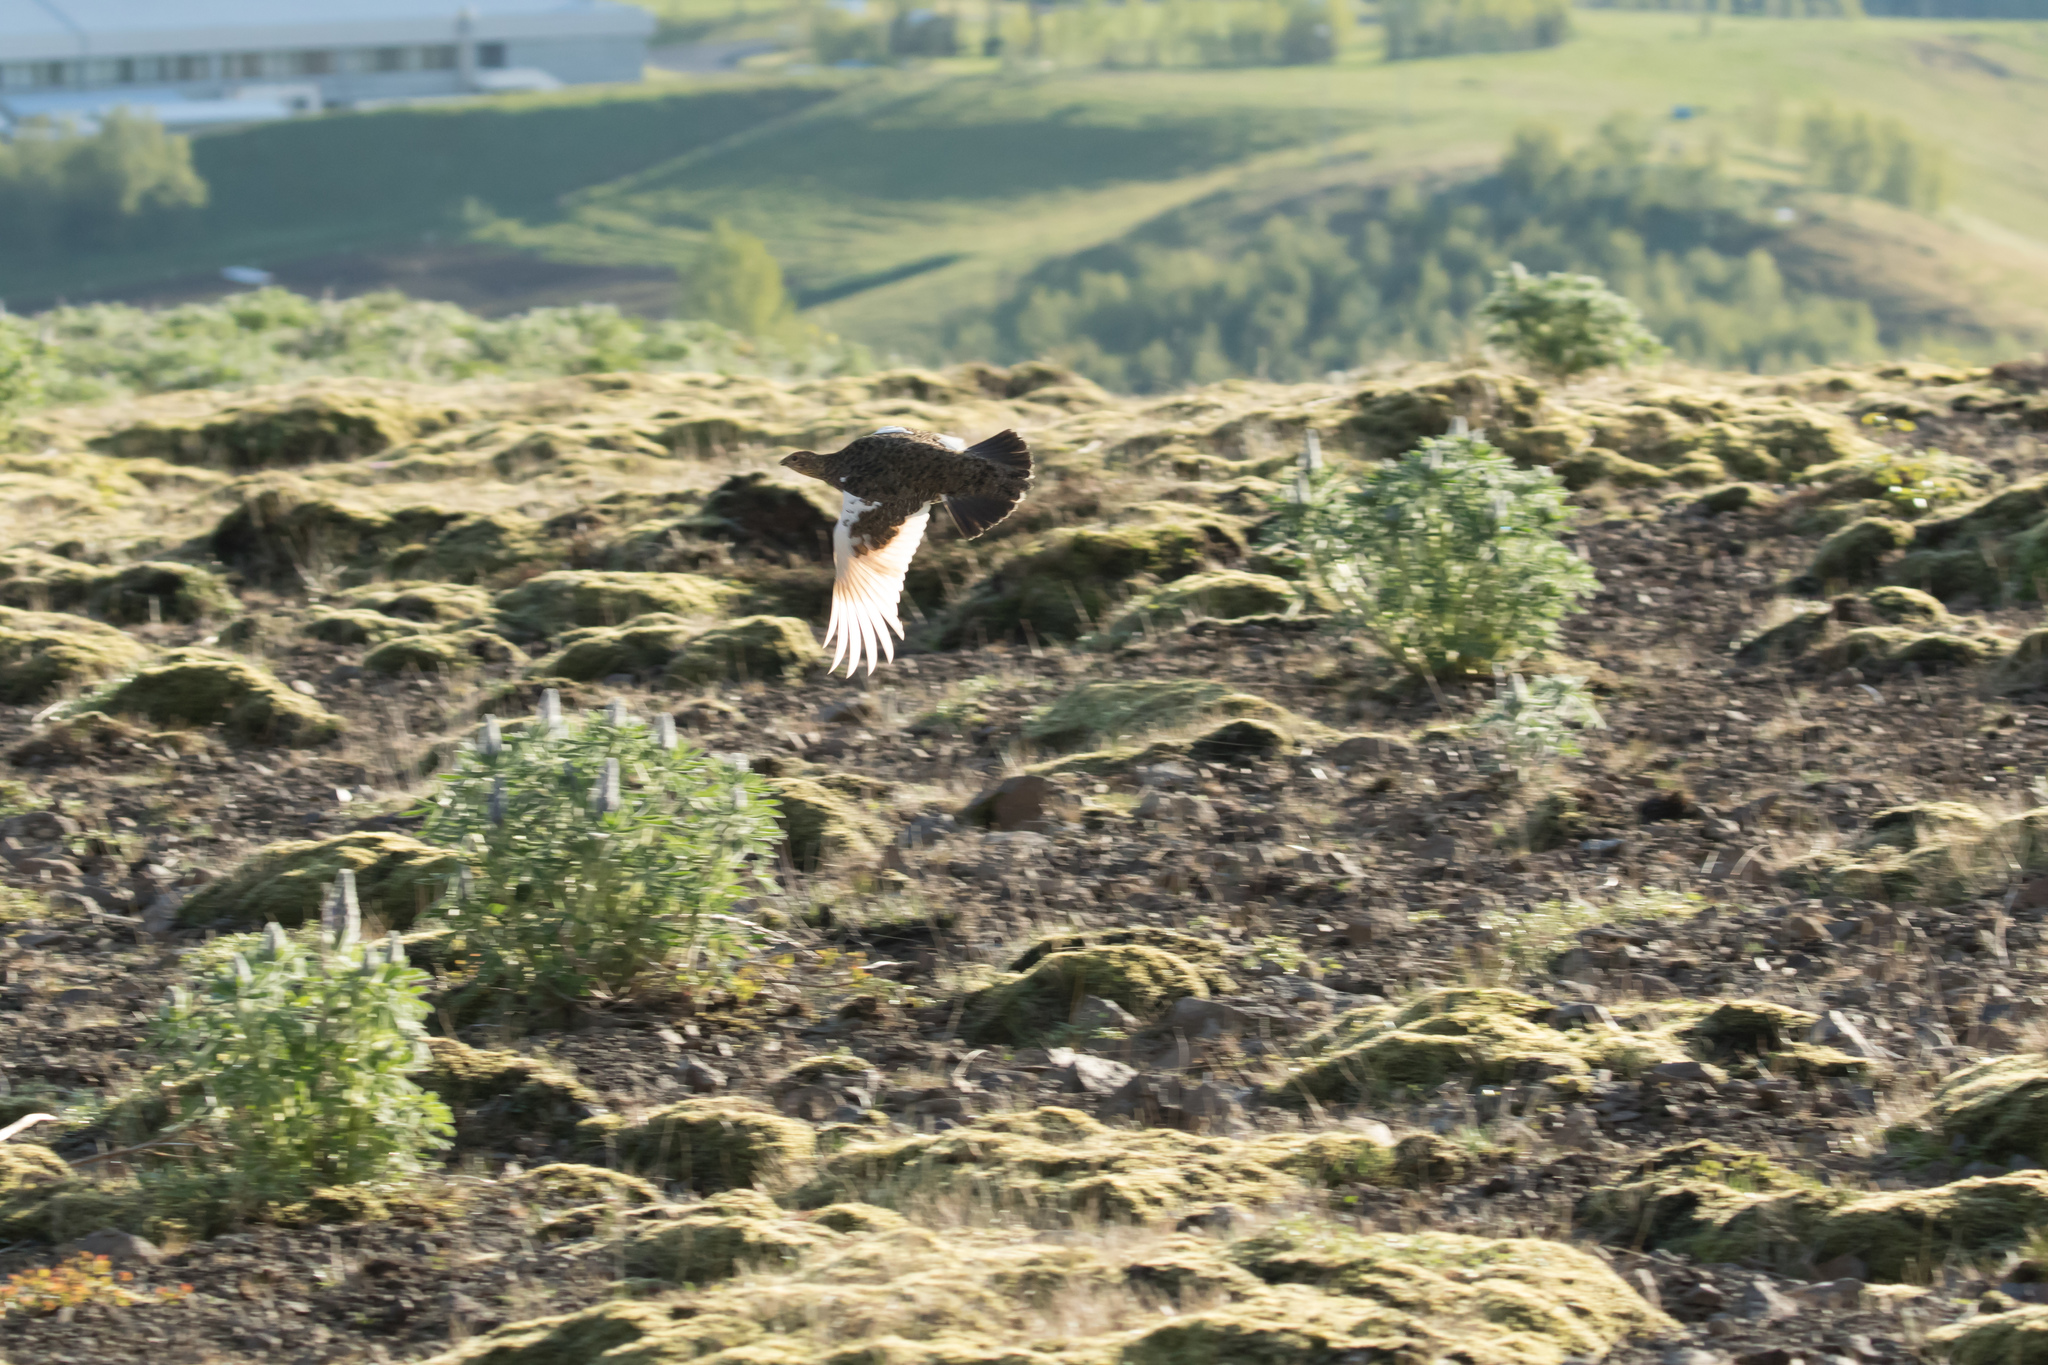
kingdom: Animalia
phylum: Chordata
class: Aves
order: Galliformes
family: Phasianidae
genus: Lagopus
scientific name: Lagopus muta
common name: Rock ptarmigan
